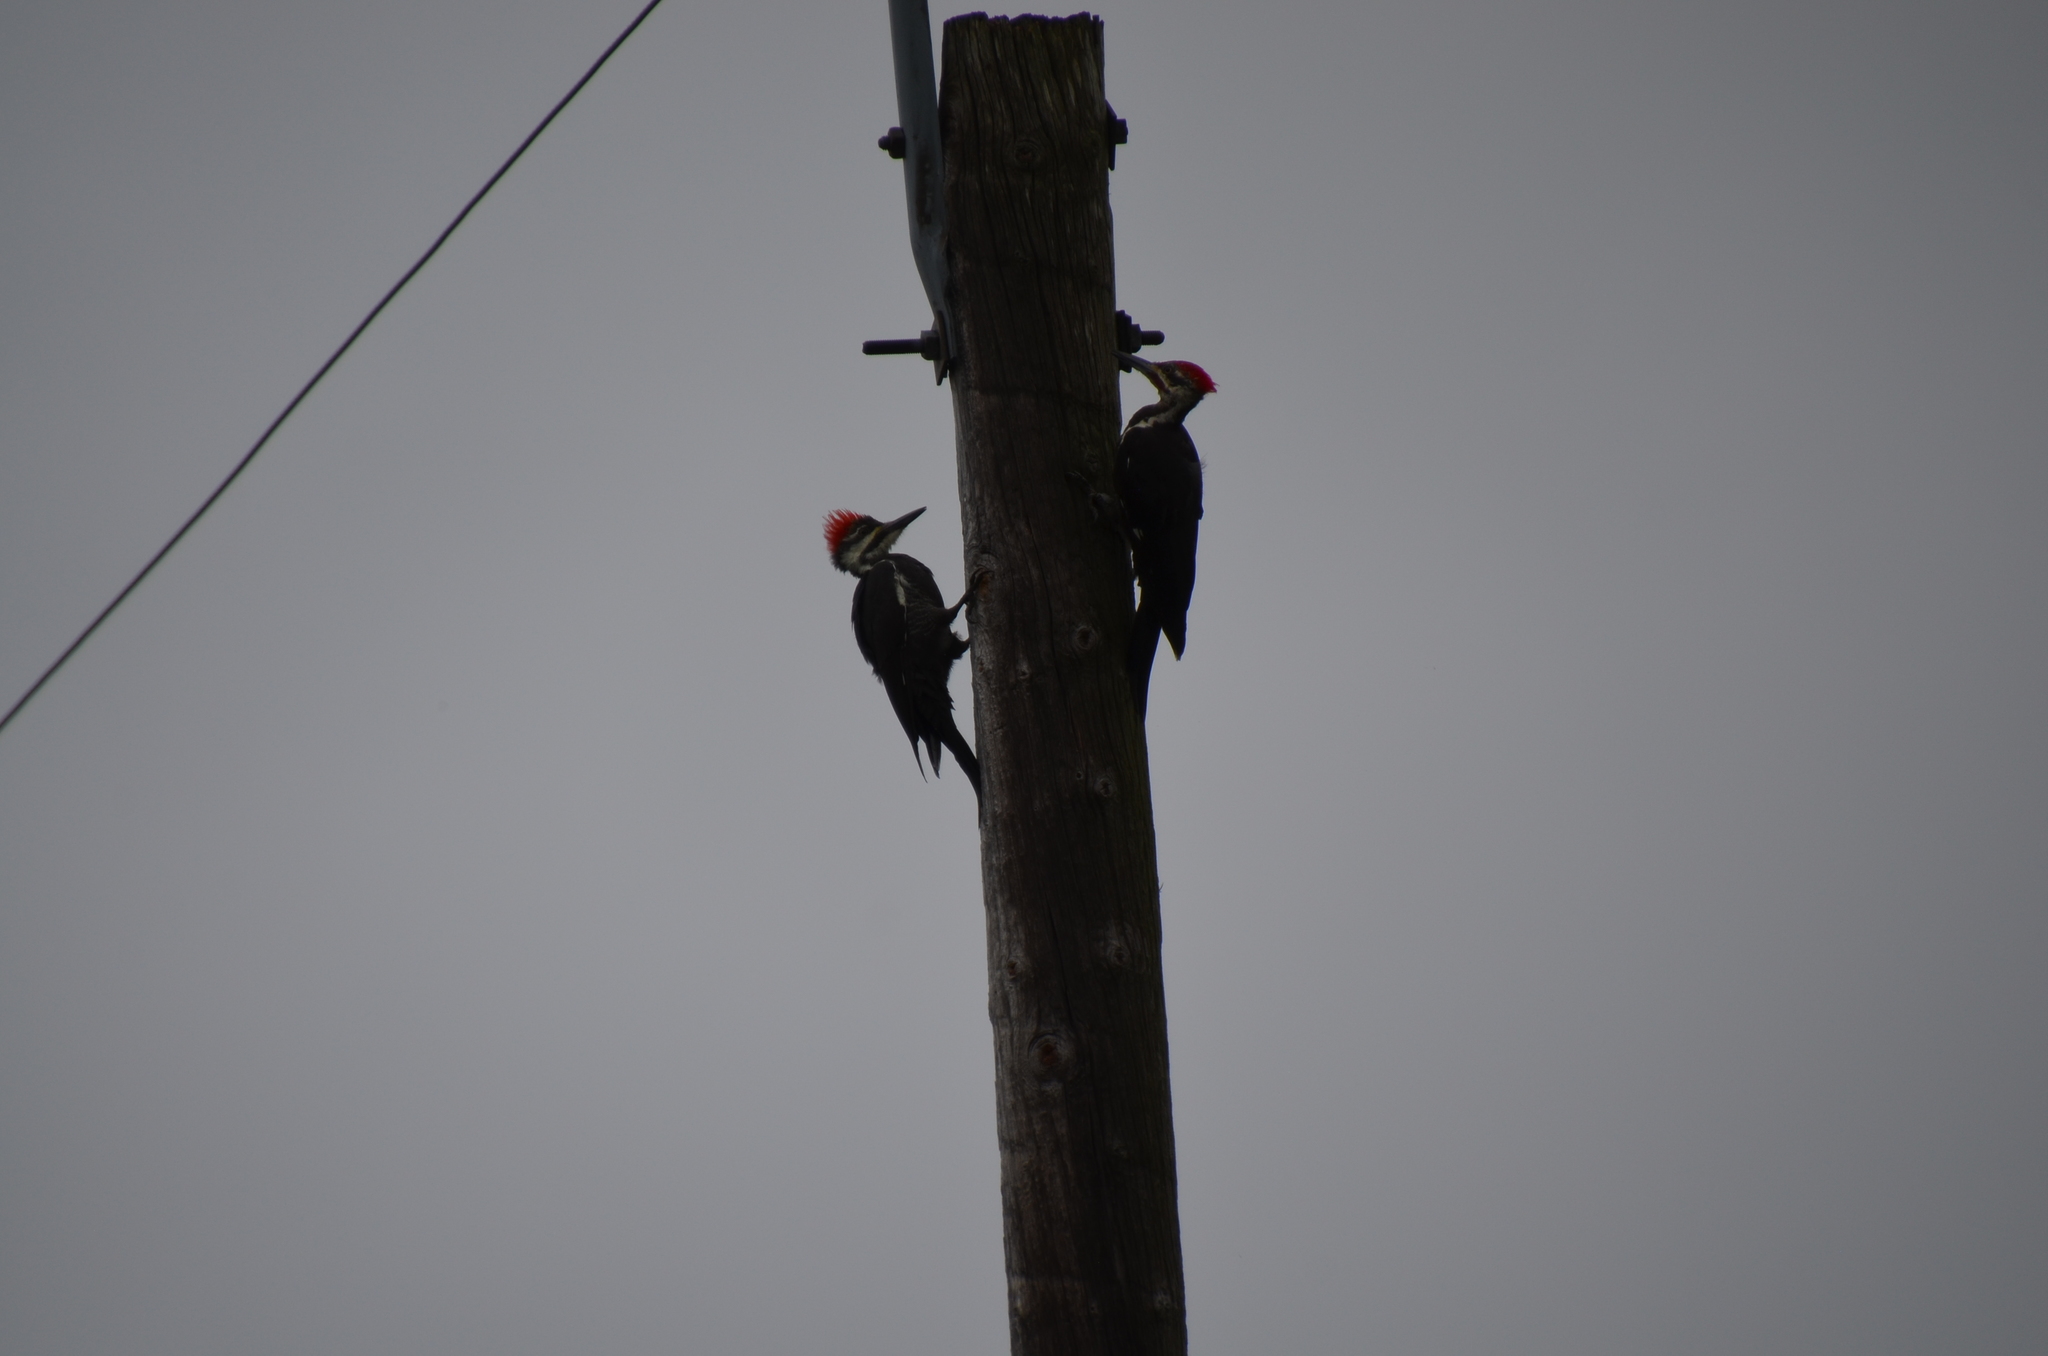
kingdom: Animalia
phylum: Chordata
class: Aves
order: Piciformes
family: Picidae
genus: Dryocopus
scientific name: Dryocopus pileatus
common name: Pileated woodpecker
